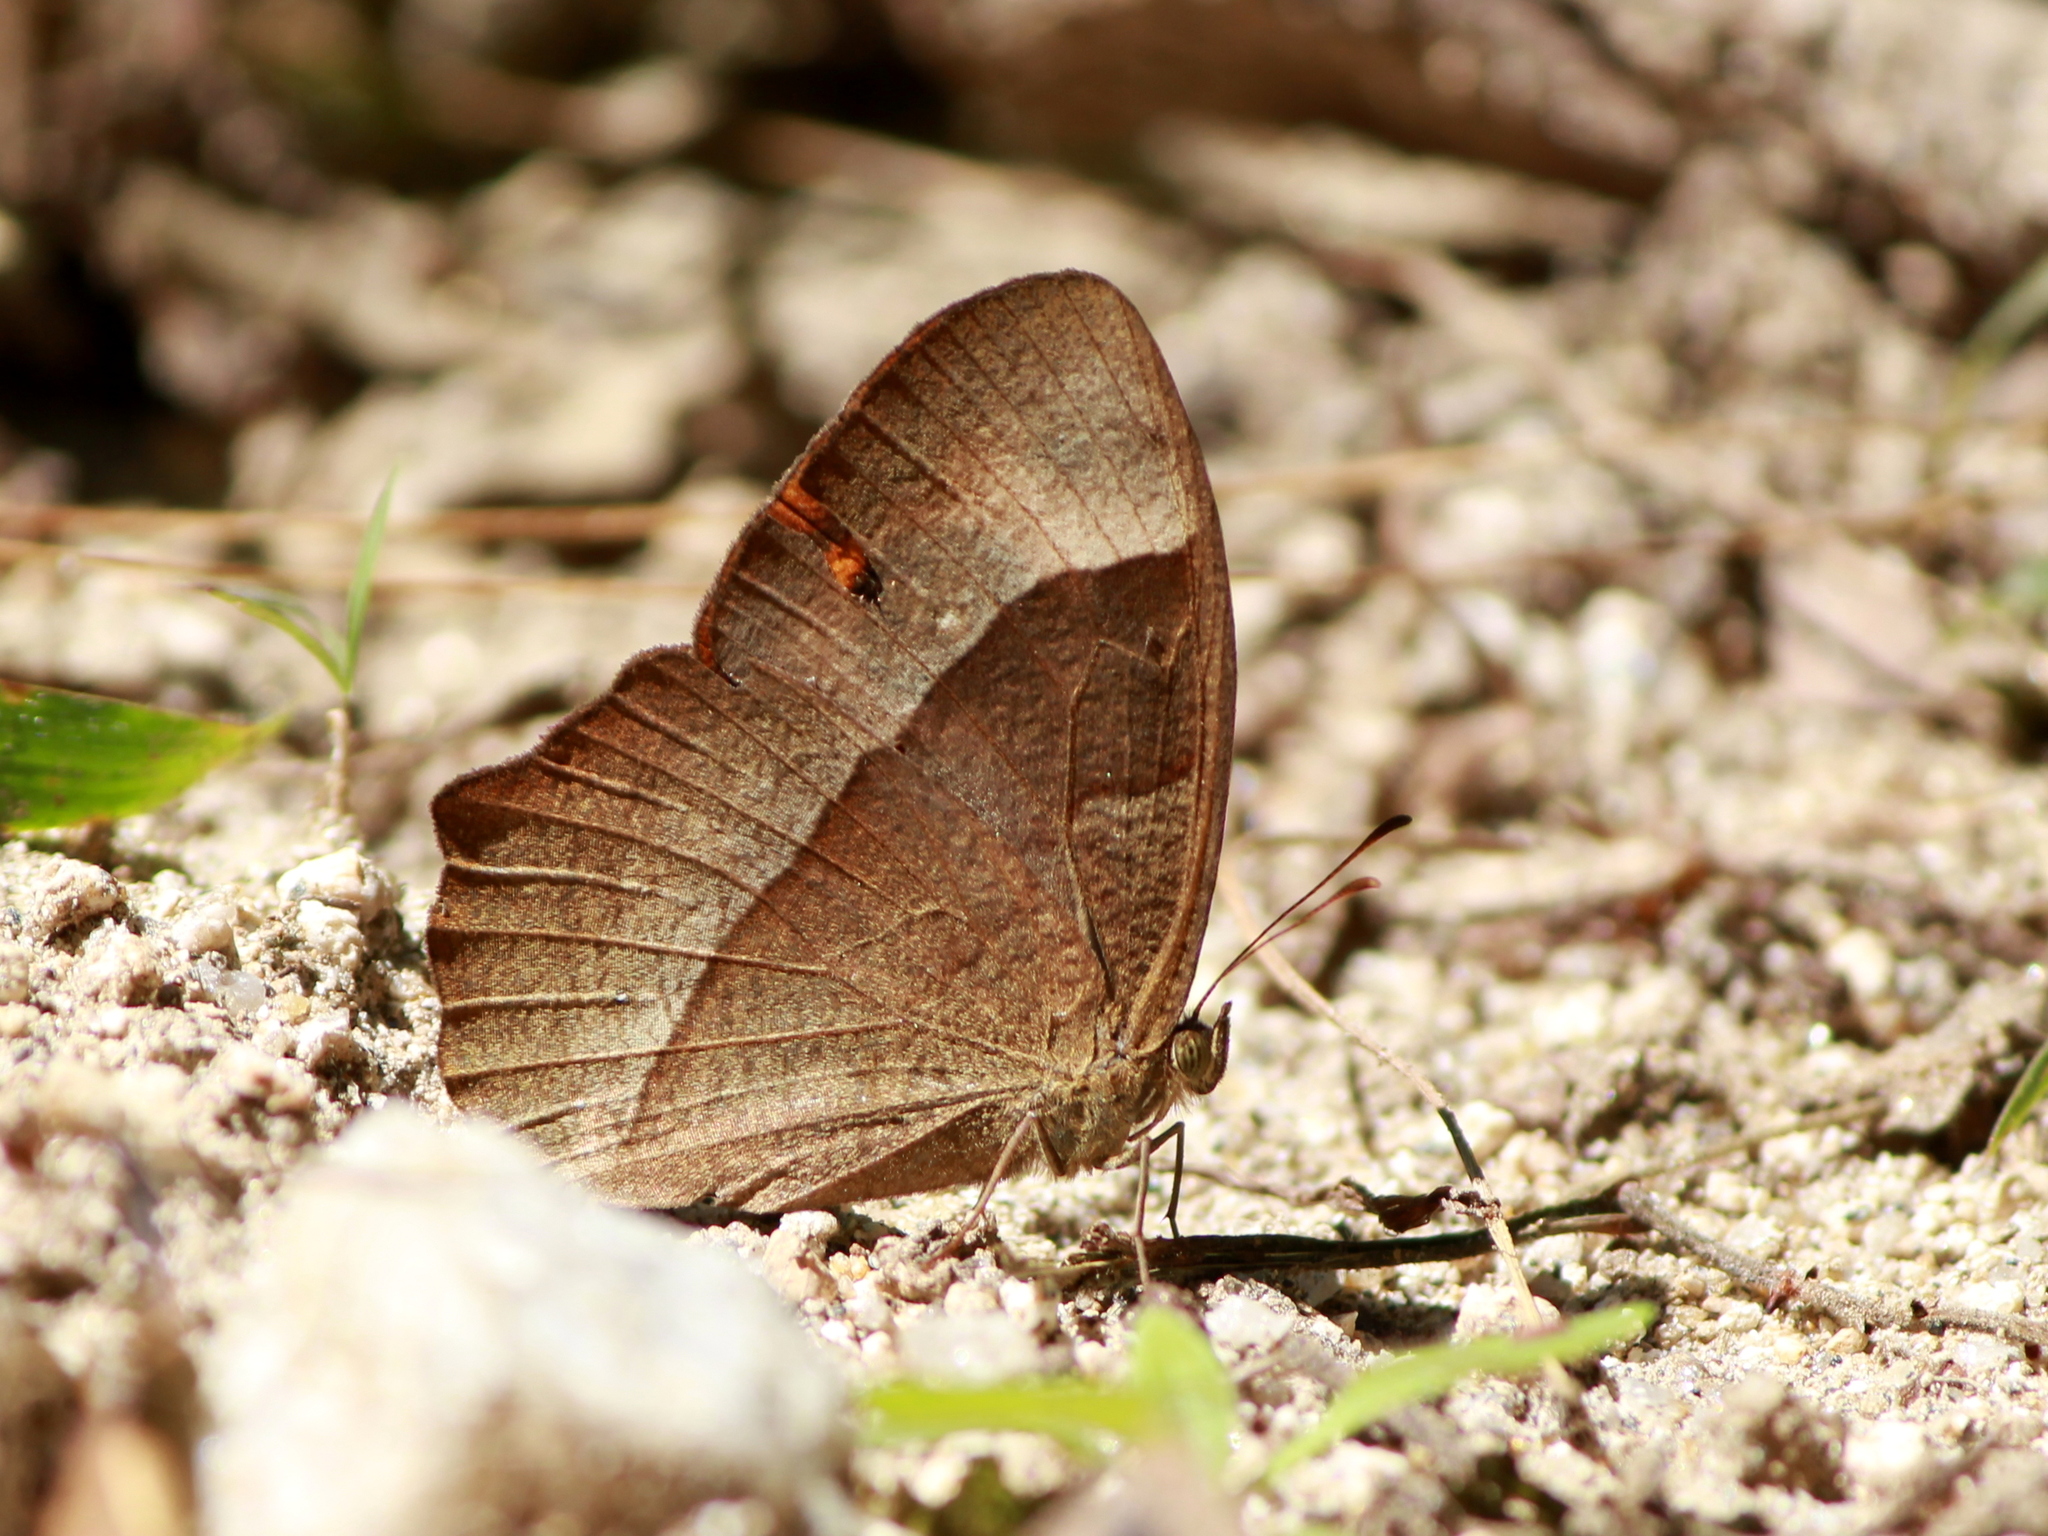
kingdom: Animalia
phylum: Arthropoda
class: Insecta
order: Lepidoptera
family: Nymphalidae
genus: Mycalesis
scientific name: Mycalesis Telinga oculus
